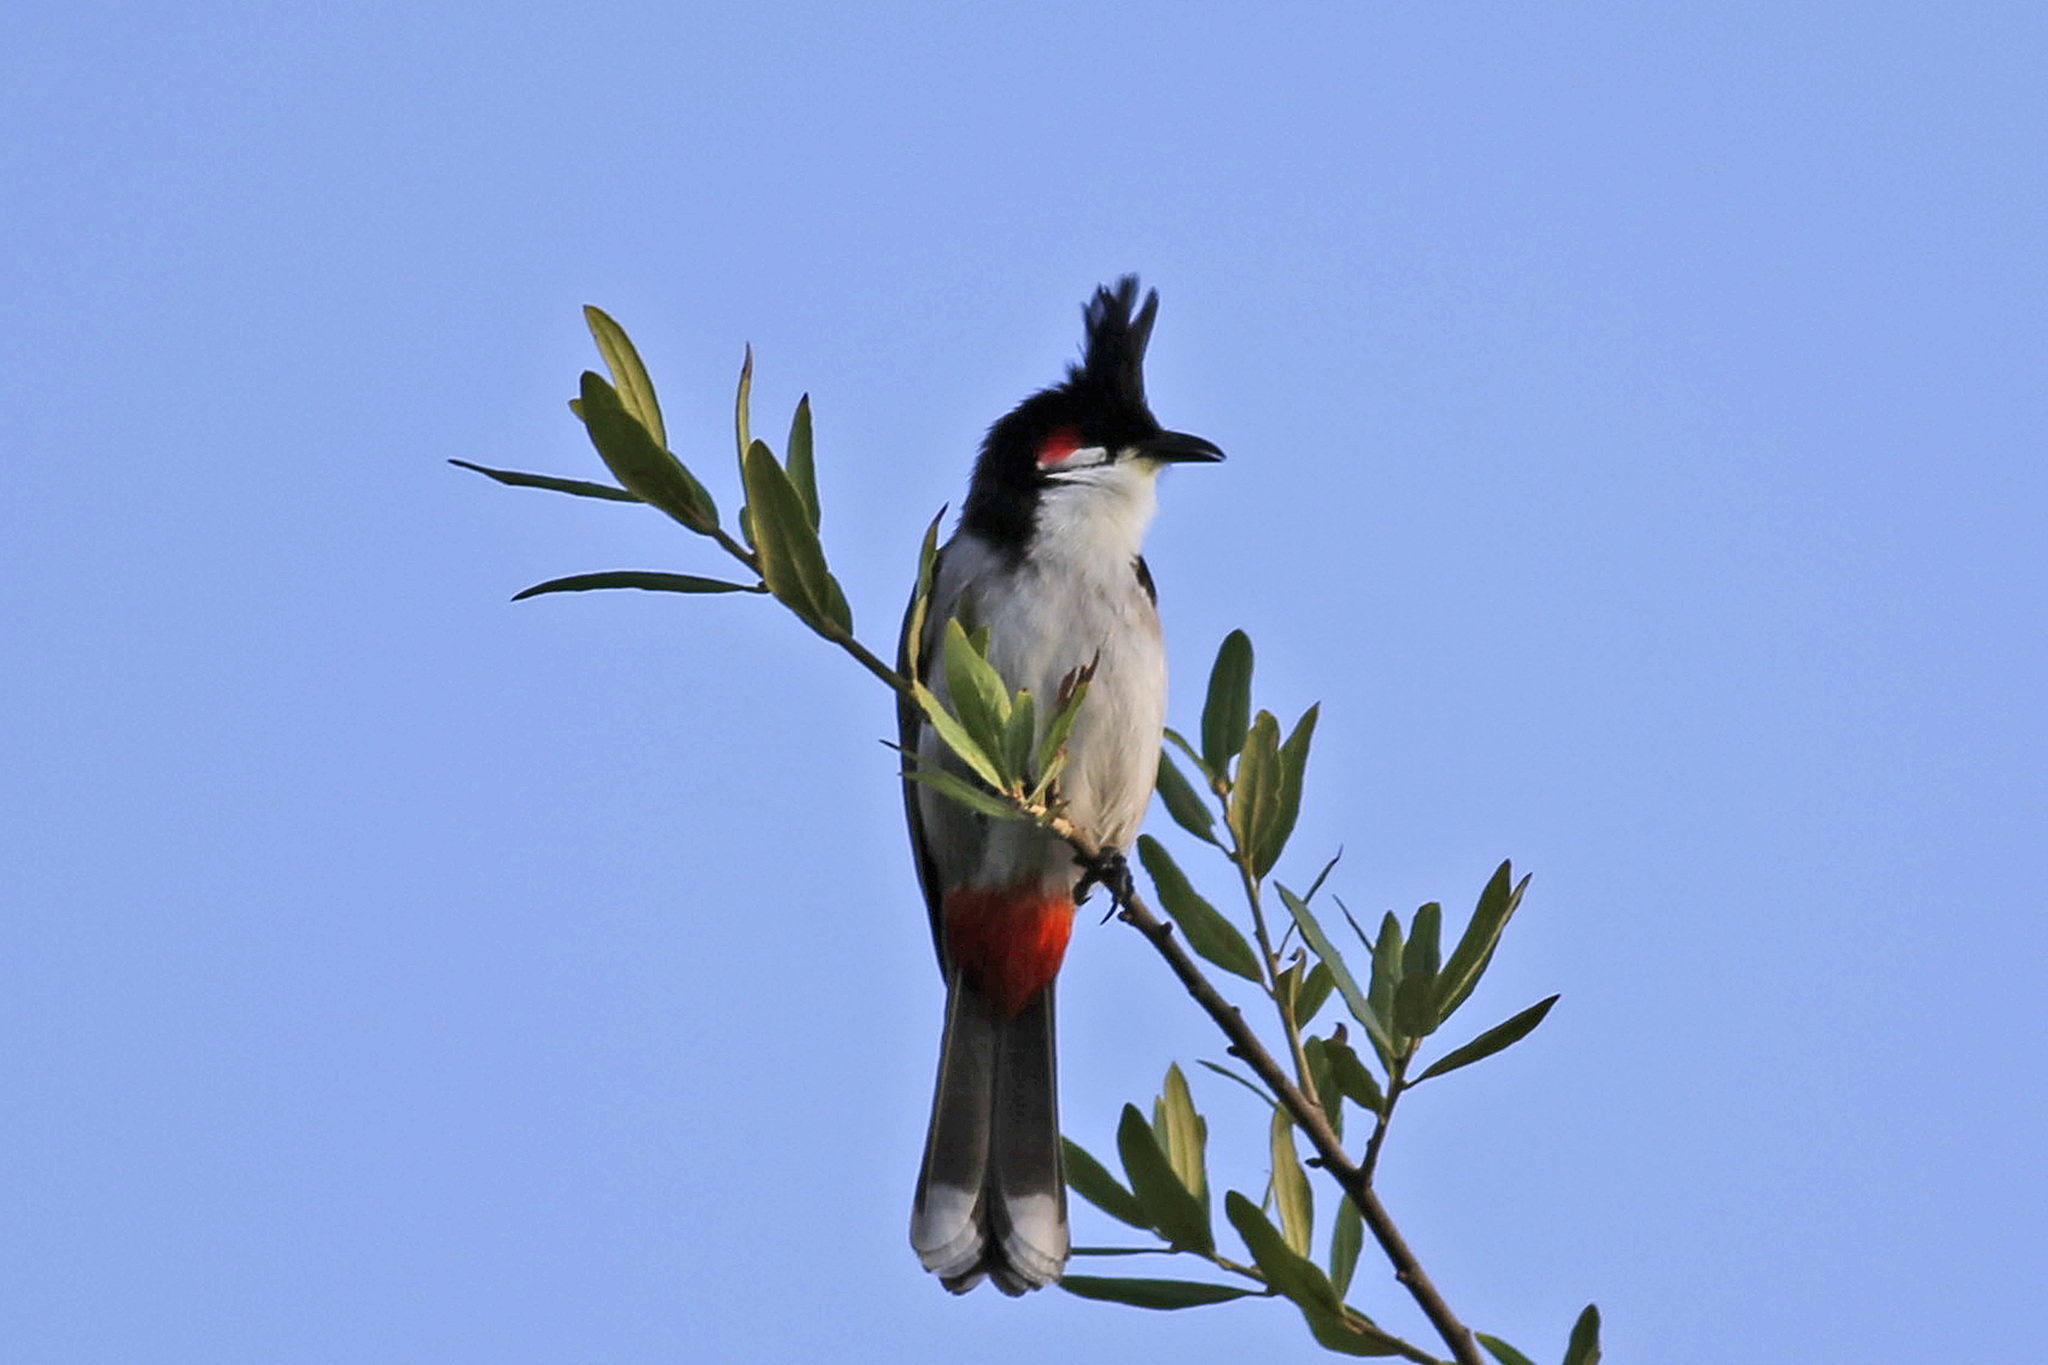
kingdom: Animalia
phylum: Chordata
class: Aves
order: Passeriformes
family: Pycnonotidae
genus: Pycnonotus
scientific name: Pycnonotus jocosus
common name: Red-whiskered bulbul
